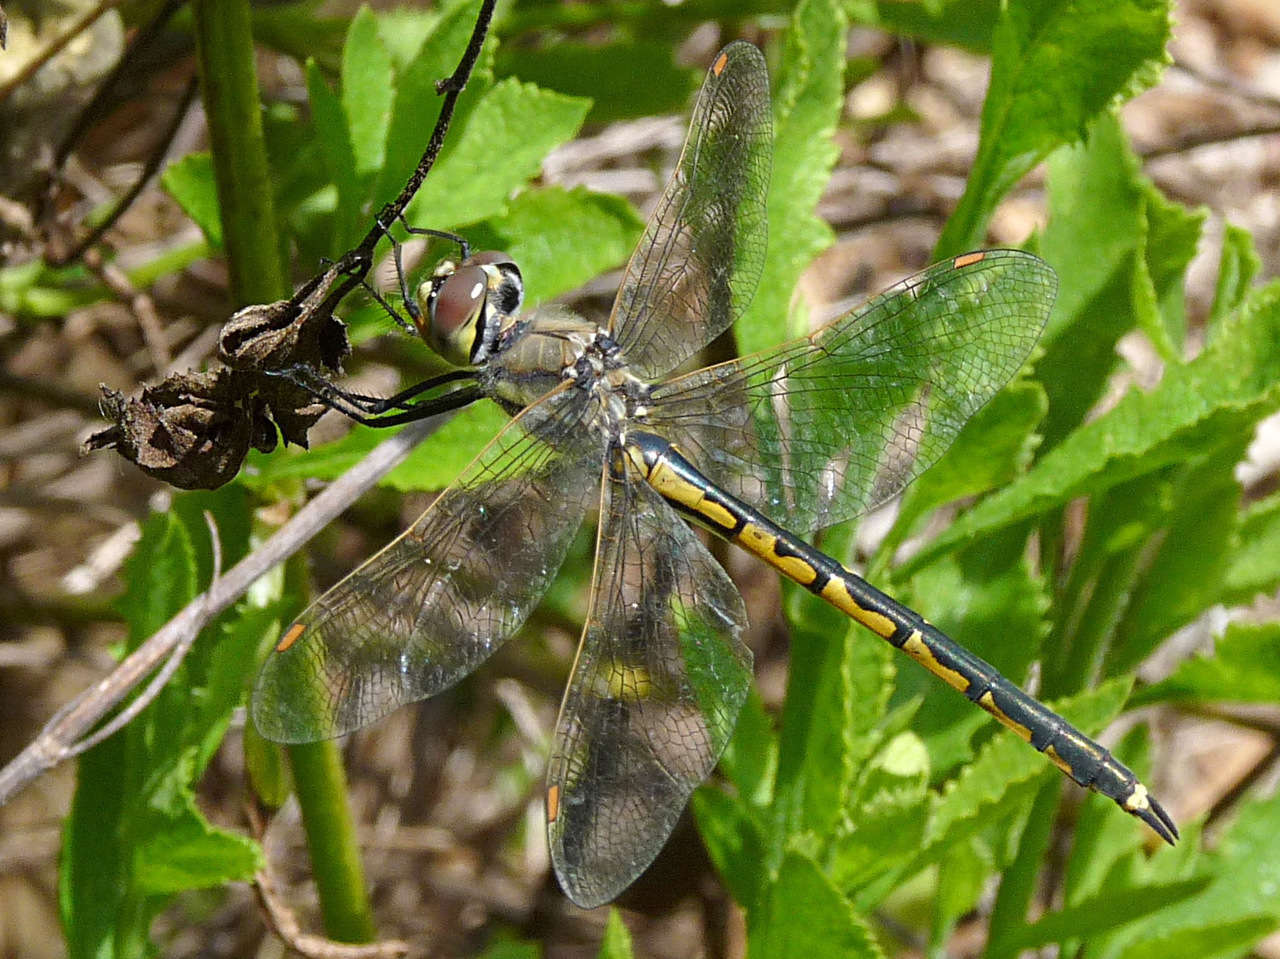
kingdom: Animalia
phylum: Arthropoda
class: Insecta
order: Odonata
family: Corduliidae
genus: Hemicordulia
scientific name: Hemicordulia tau
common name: Tau emerald
